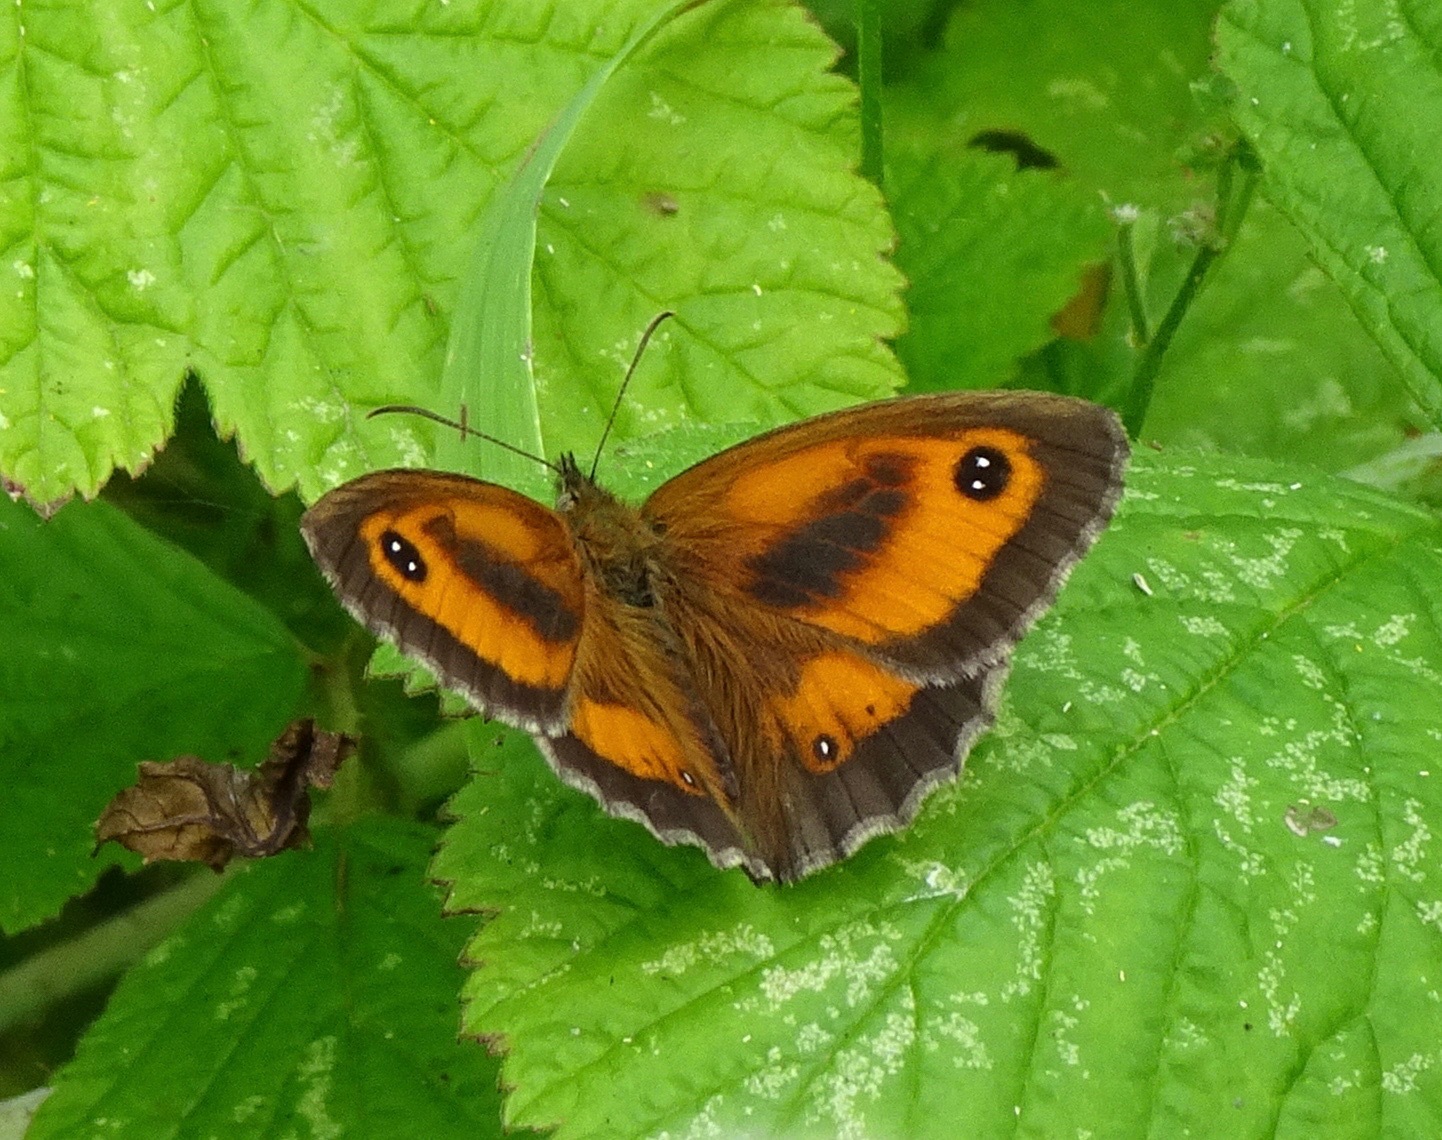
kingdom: Animalia
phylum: Arthropoda
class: Insecta
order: Lepidoptera
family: Nymphalidae
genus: Pyronia
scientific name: Pyronia tithonus
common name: Gatekeeper
